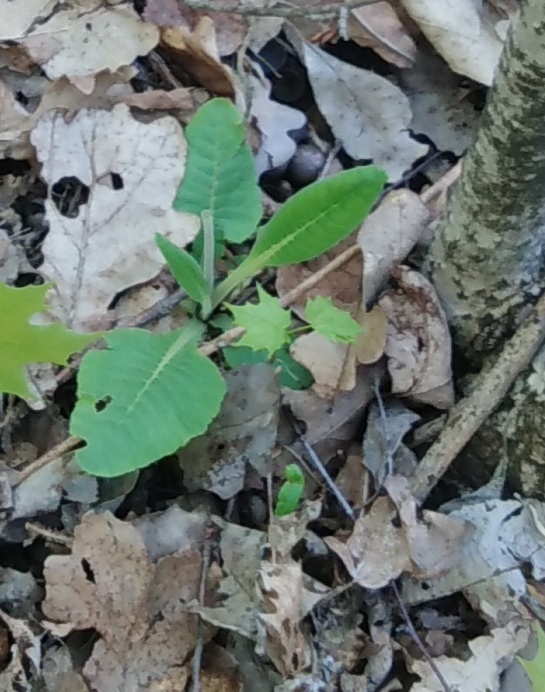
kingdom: Plantae
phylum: Tracheophyta
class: Magnoliopsida
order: Ericales
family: Primulaceae
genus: Primula
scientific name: Primula veris
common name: Cowslip
